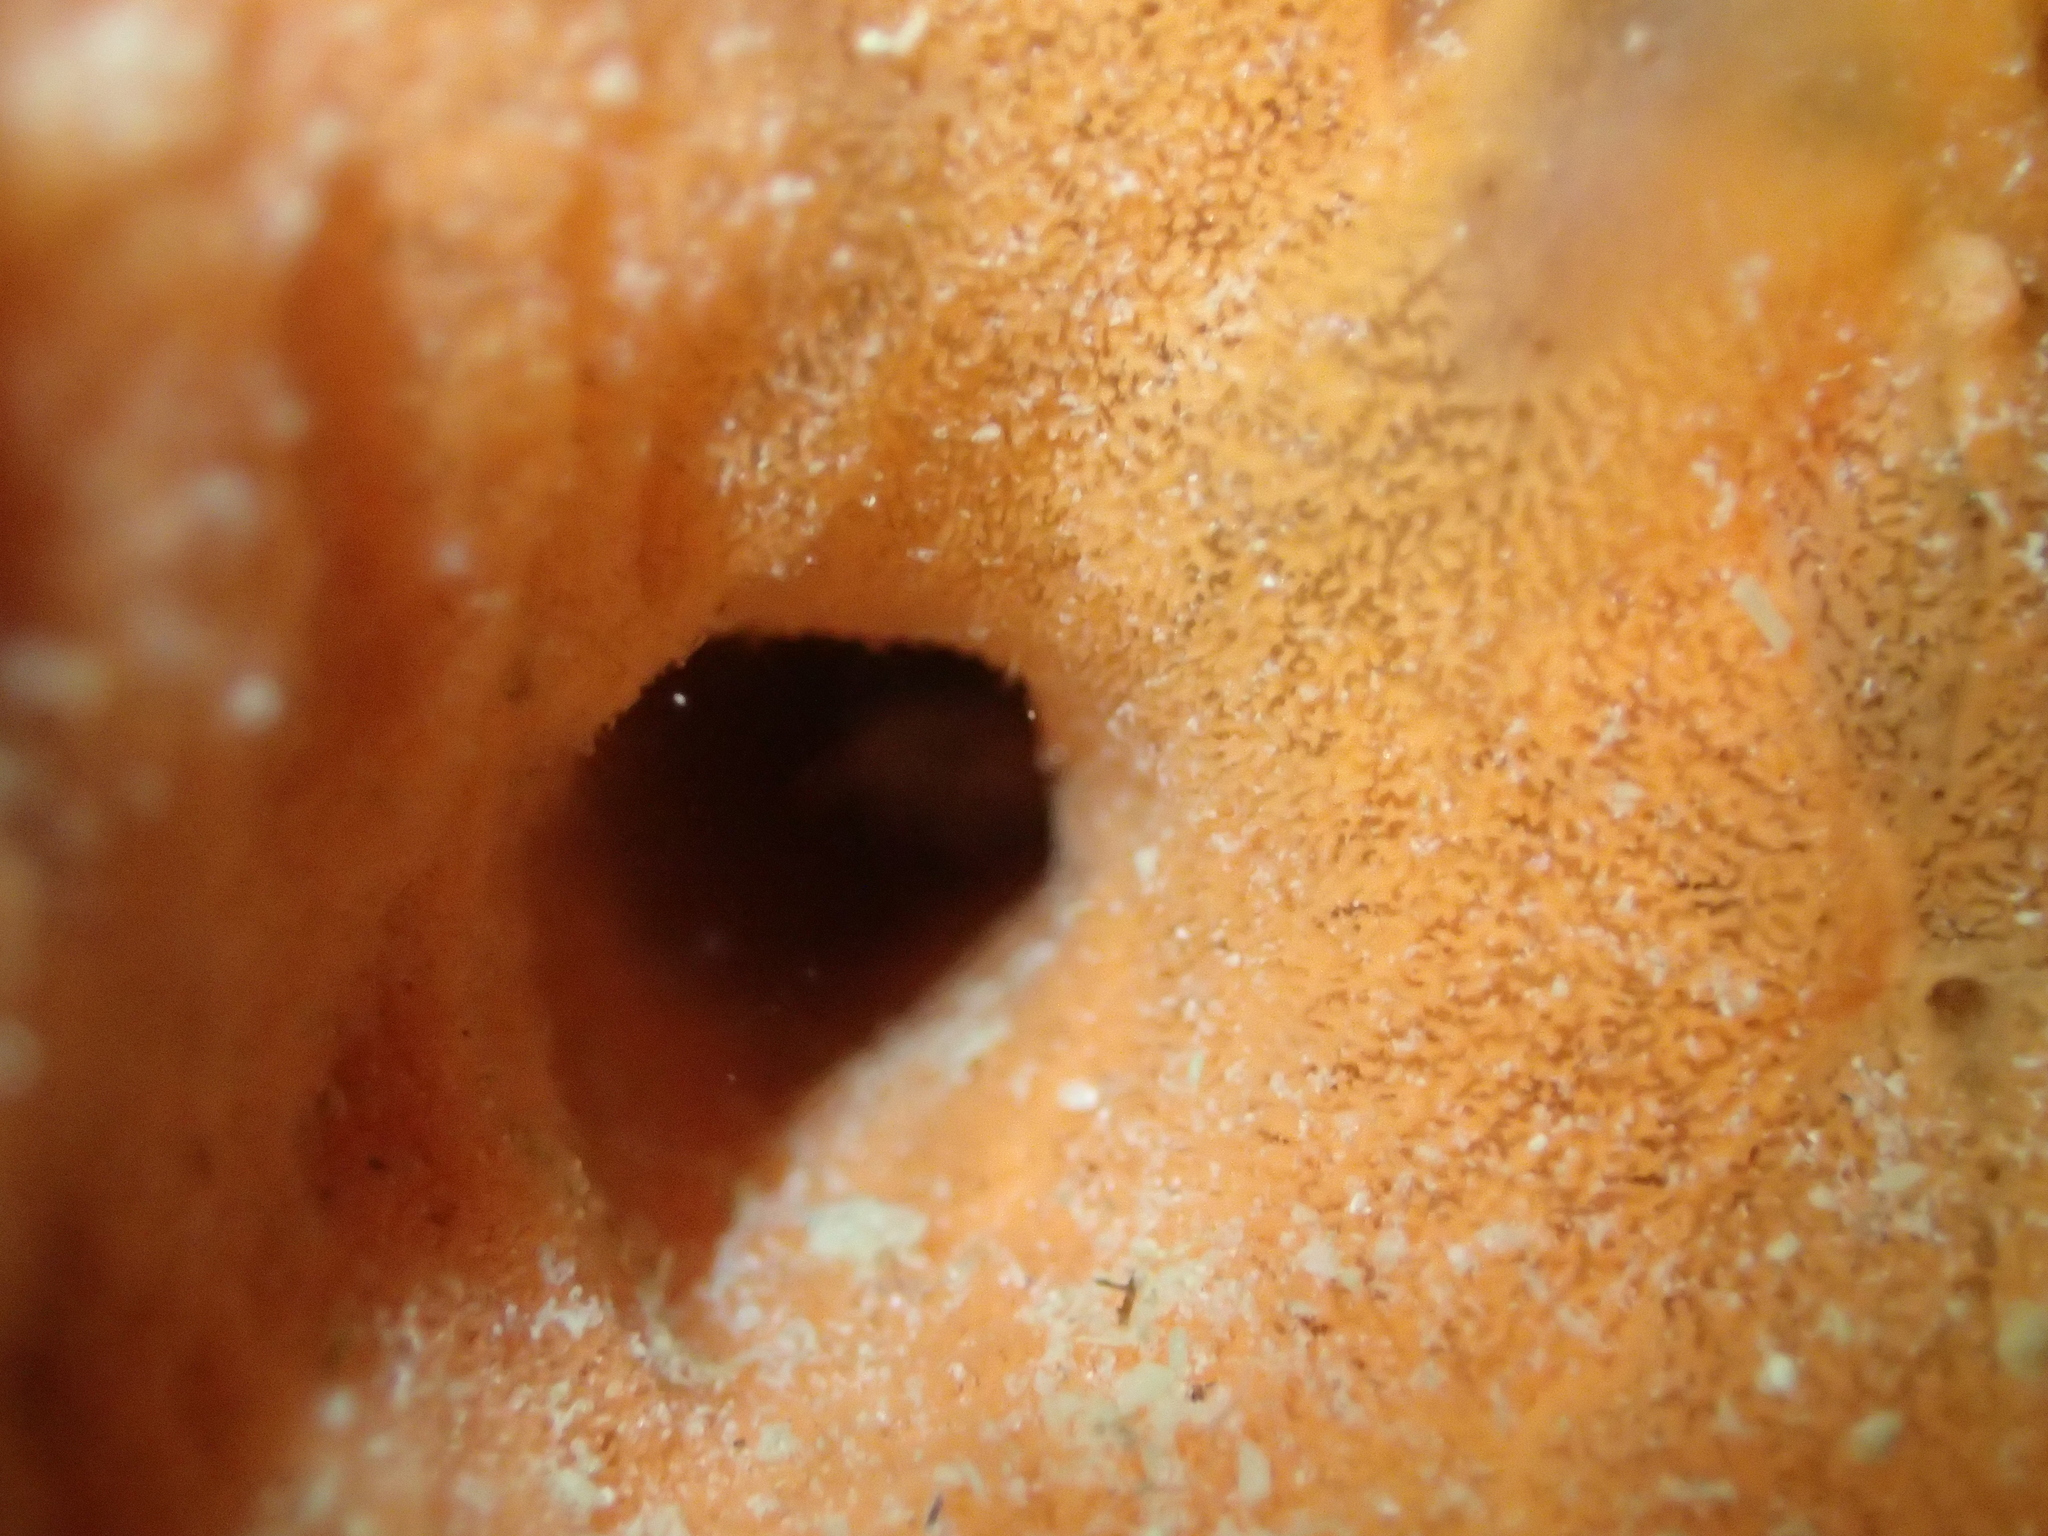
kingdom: Animalia
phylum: Porifera
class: Demospongiae
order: Clionaida
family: Spirastrellidae
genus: Spirastrella
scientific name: Spirastrella cunctatrix
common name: Encrusting orange sponge
